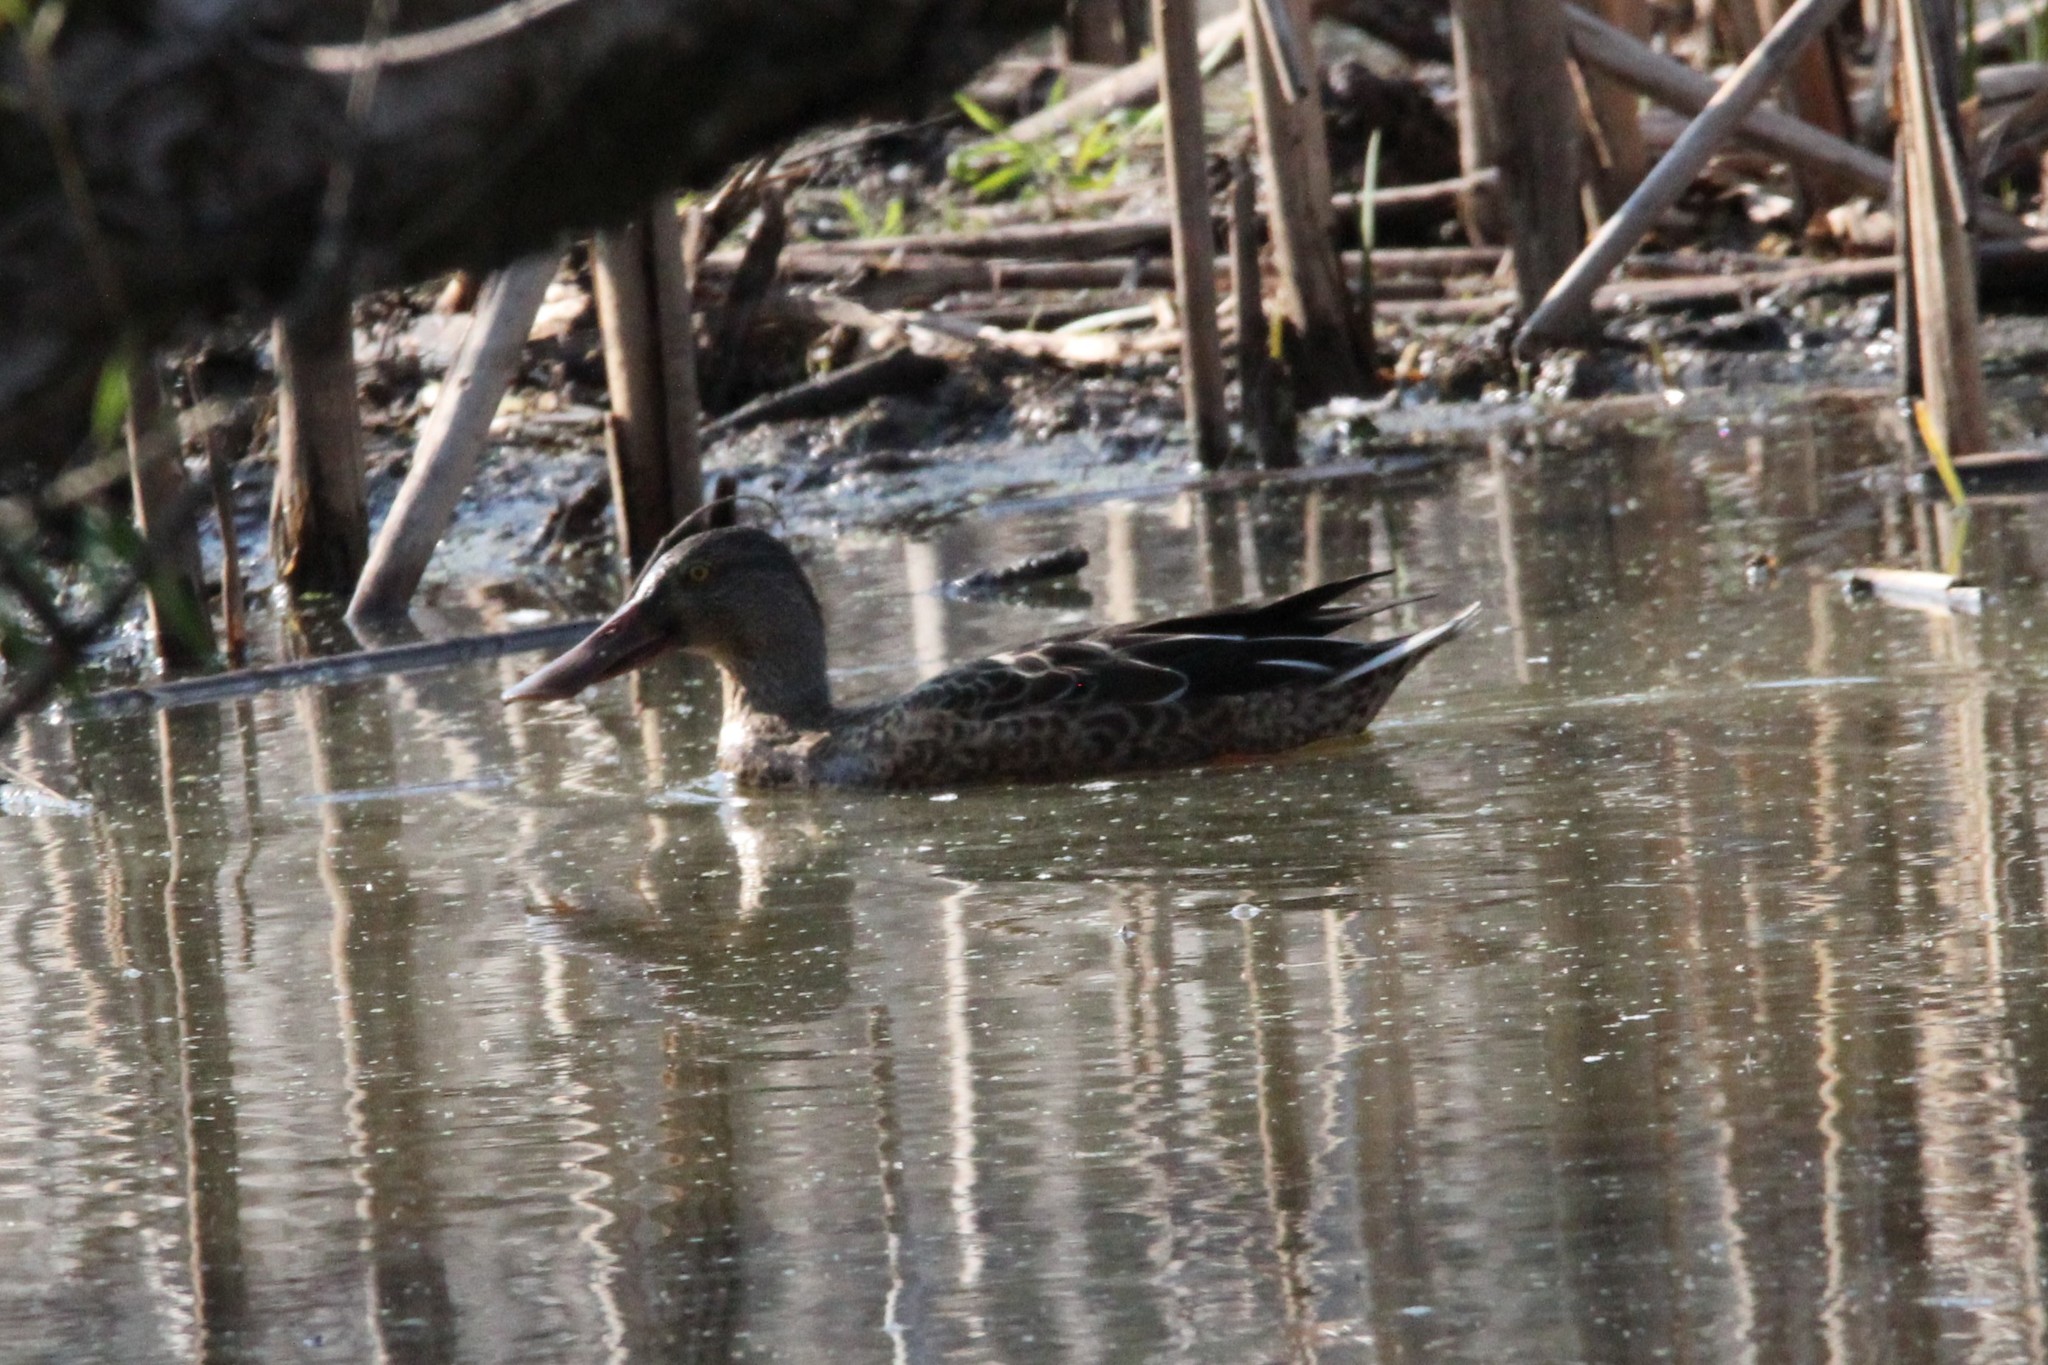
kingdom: Animalia
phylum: Chordata
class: Aves
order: Anseriformes
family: Anatidae
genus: Spatula
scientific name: Spatula clypeata
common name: Northern shoveler
